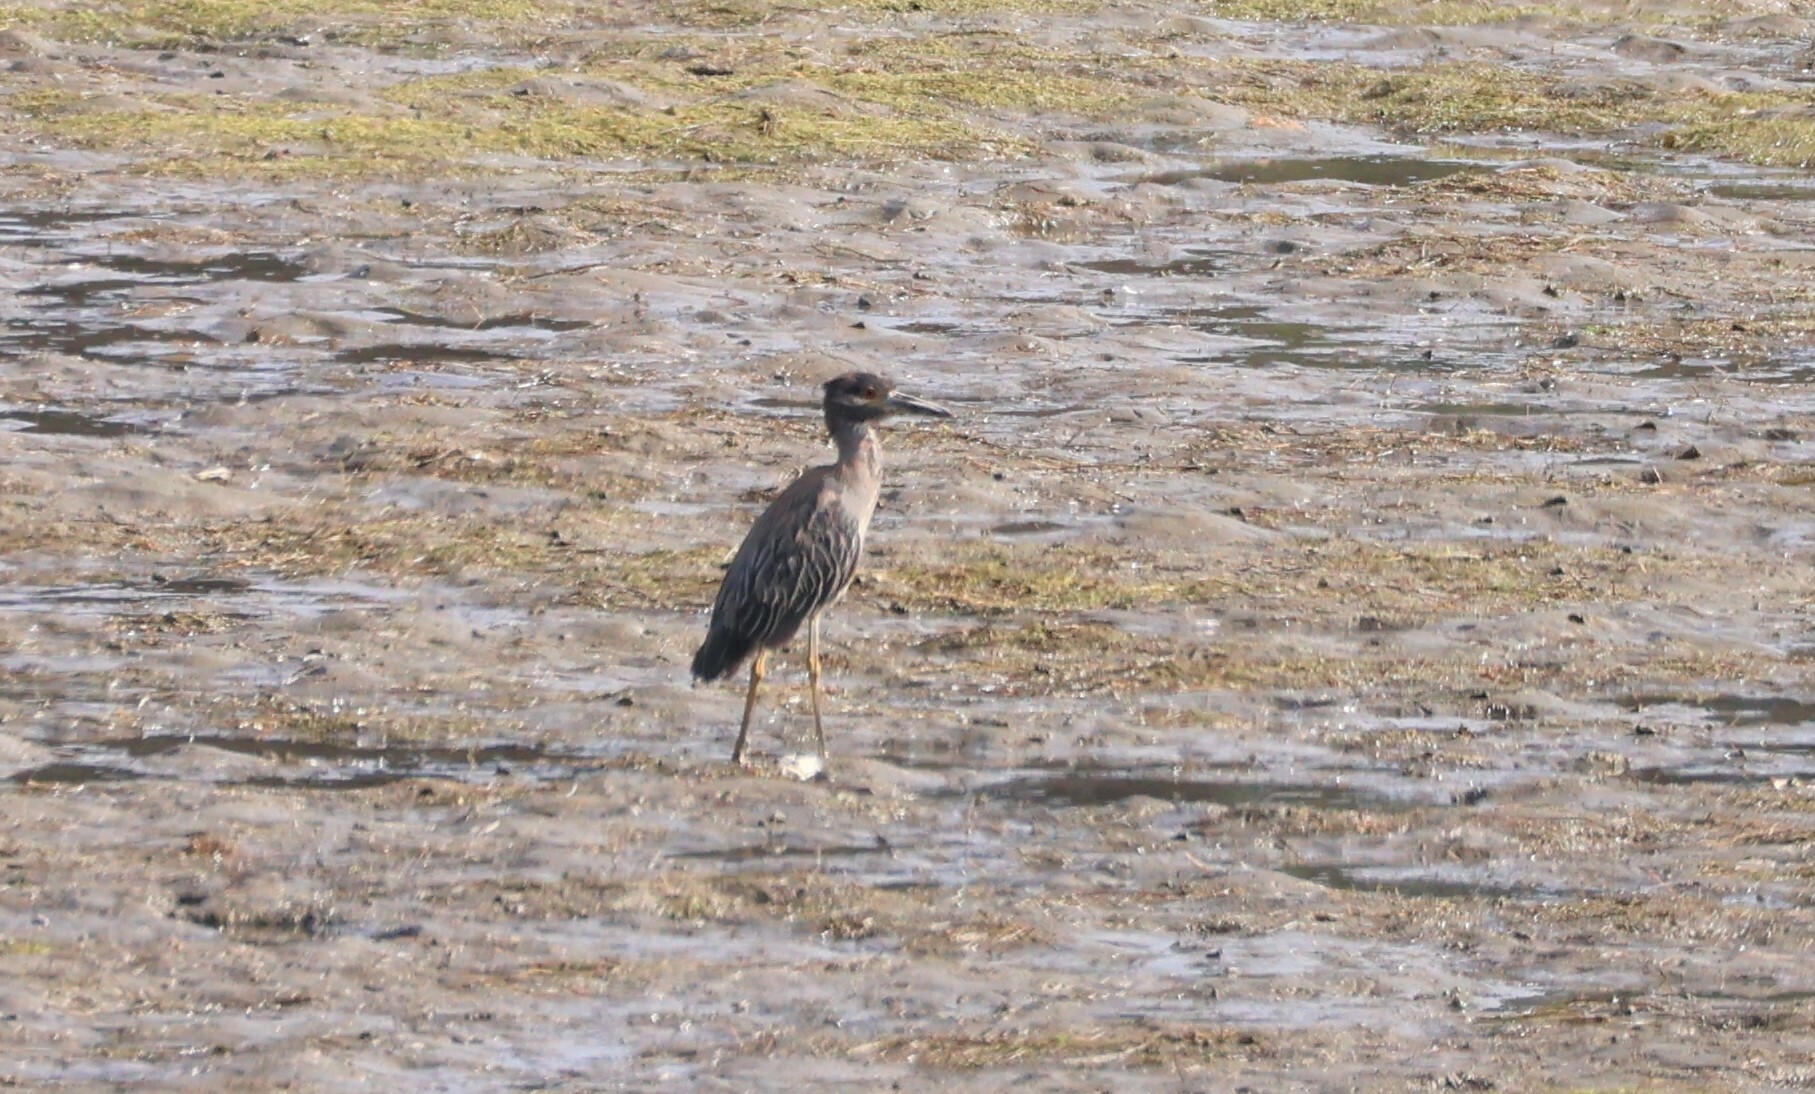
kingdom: Animalia
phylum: Chordata
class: Aves
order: Pelecaniformes
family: Ardeidae
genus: Nyctanassa
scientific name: Nyctanassa violacea
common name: Yellow-crowned night heron
